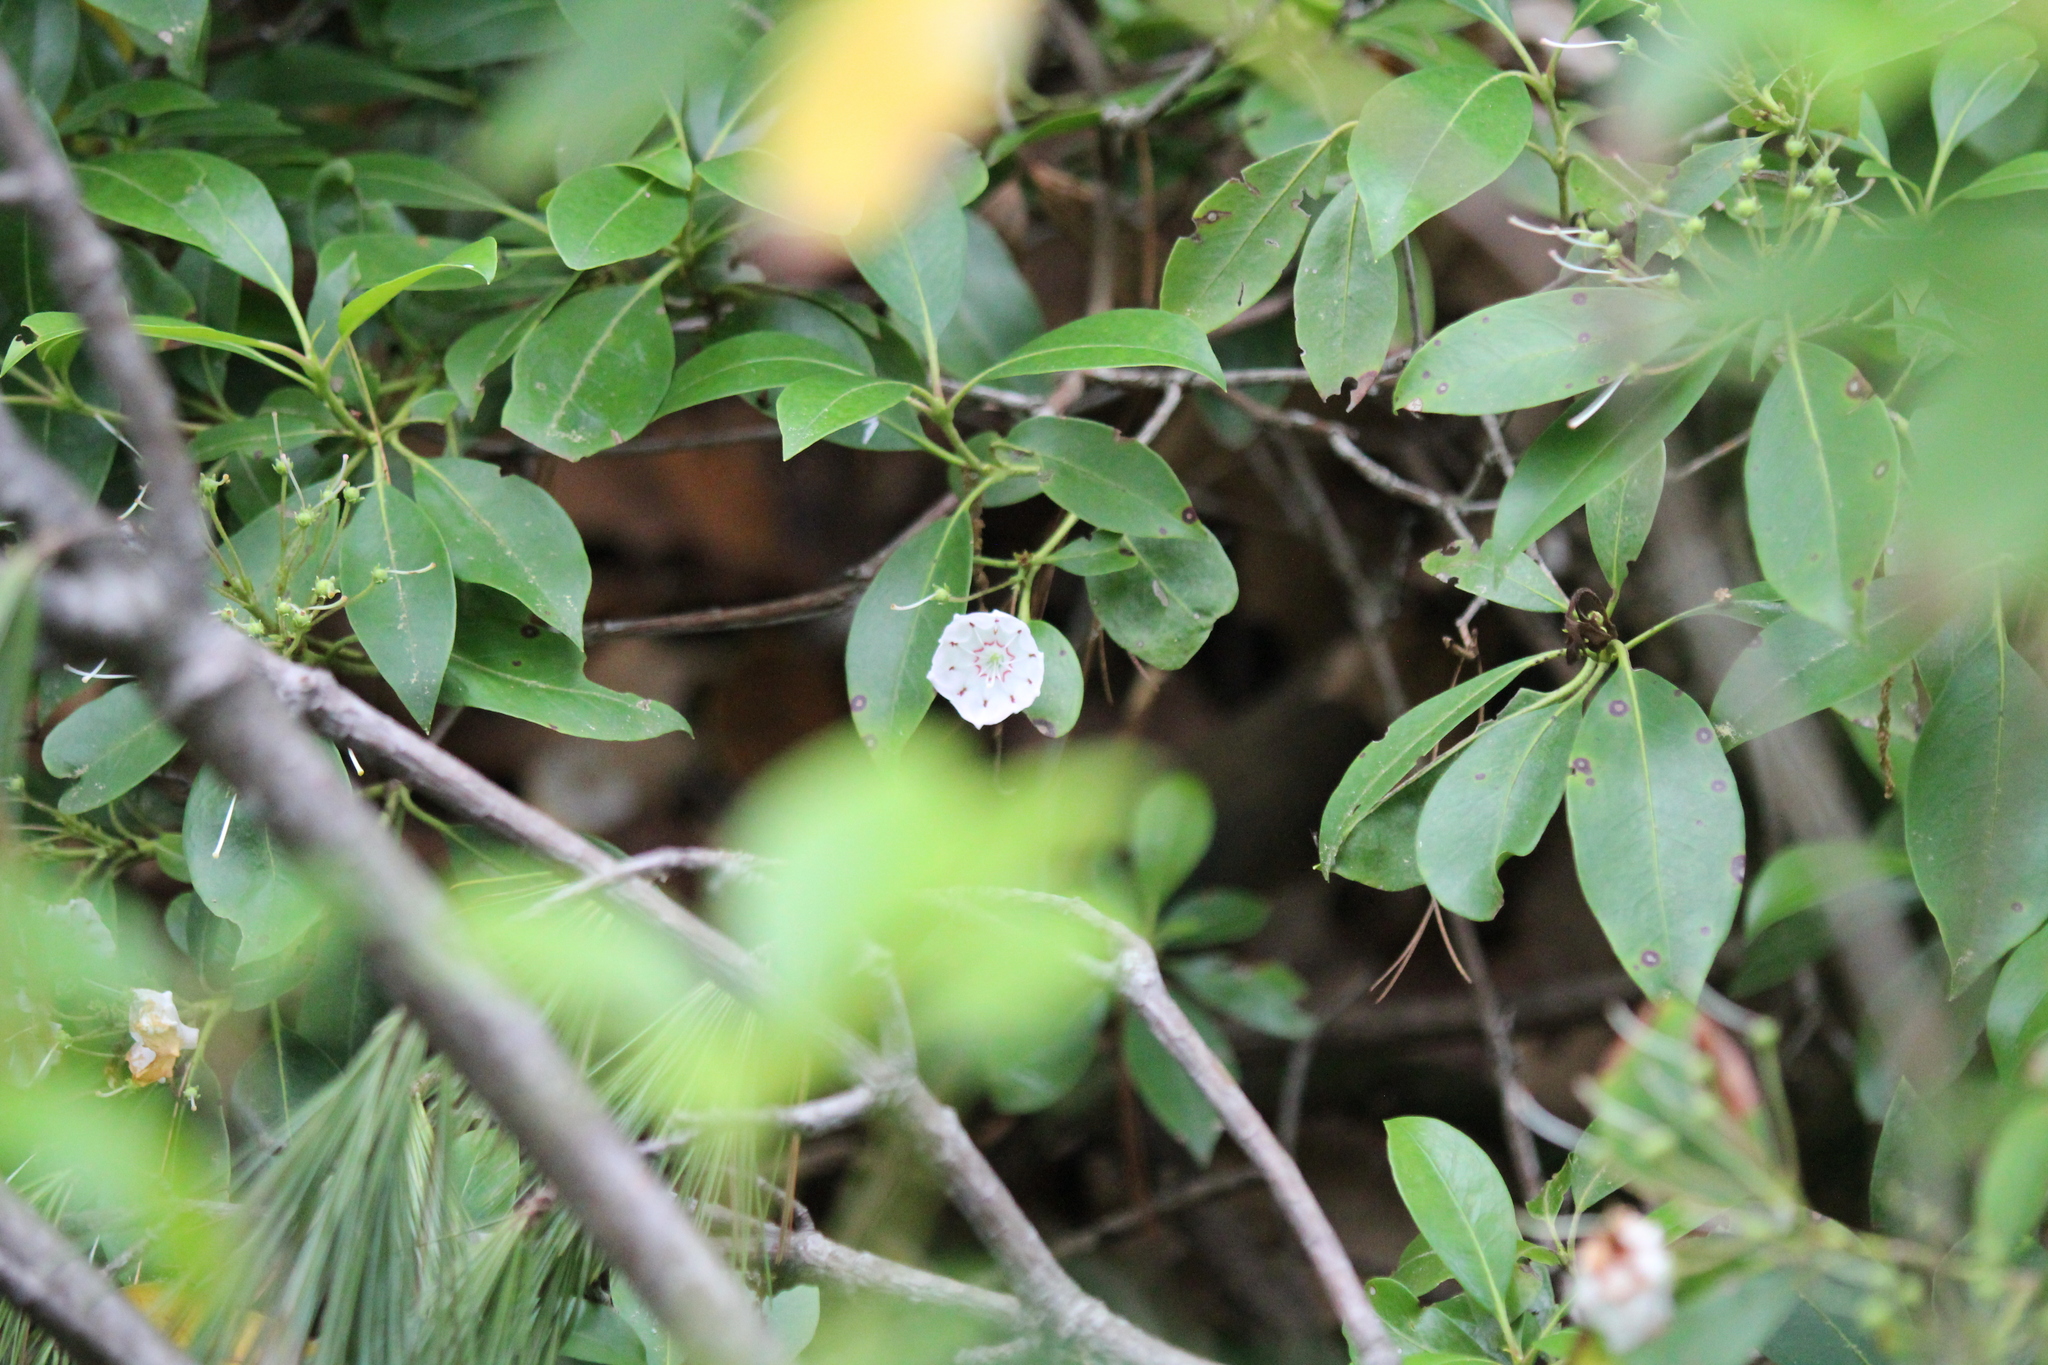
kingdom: Plantae
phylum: Tracheophyta
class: Magnoliopsida
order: Ericales
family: Ericaceae
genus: Kalmia
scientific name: Kalmia latifolia
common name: Mountain-laurel
